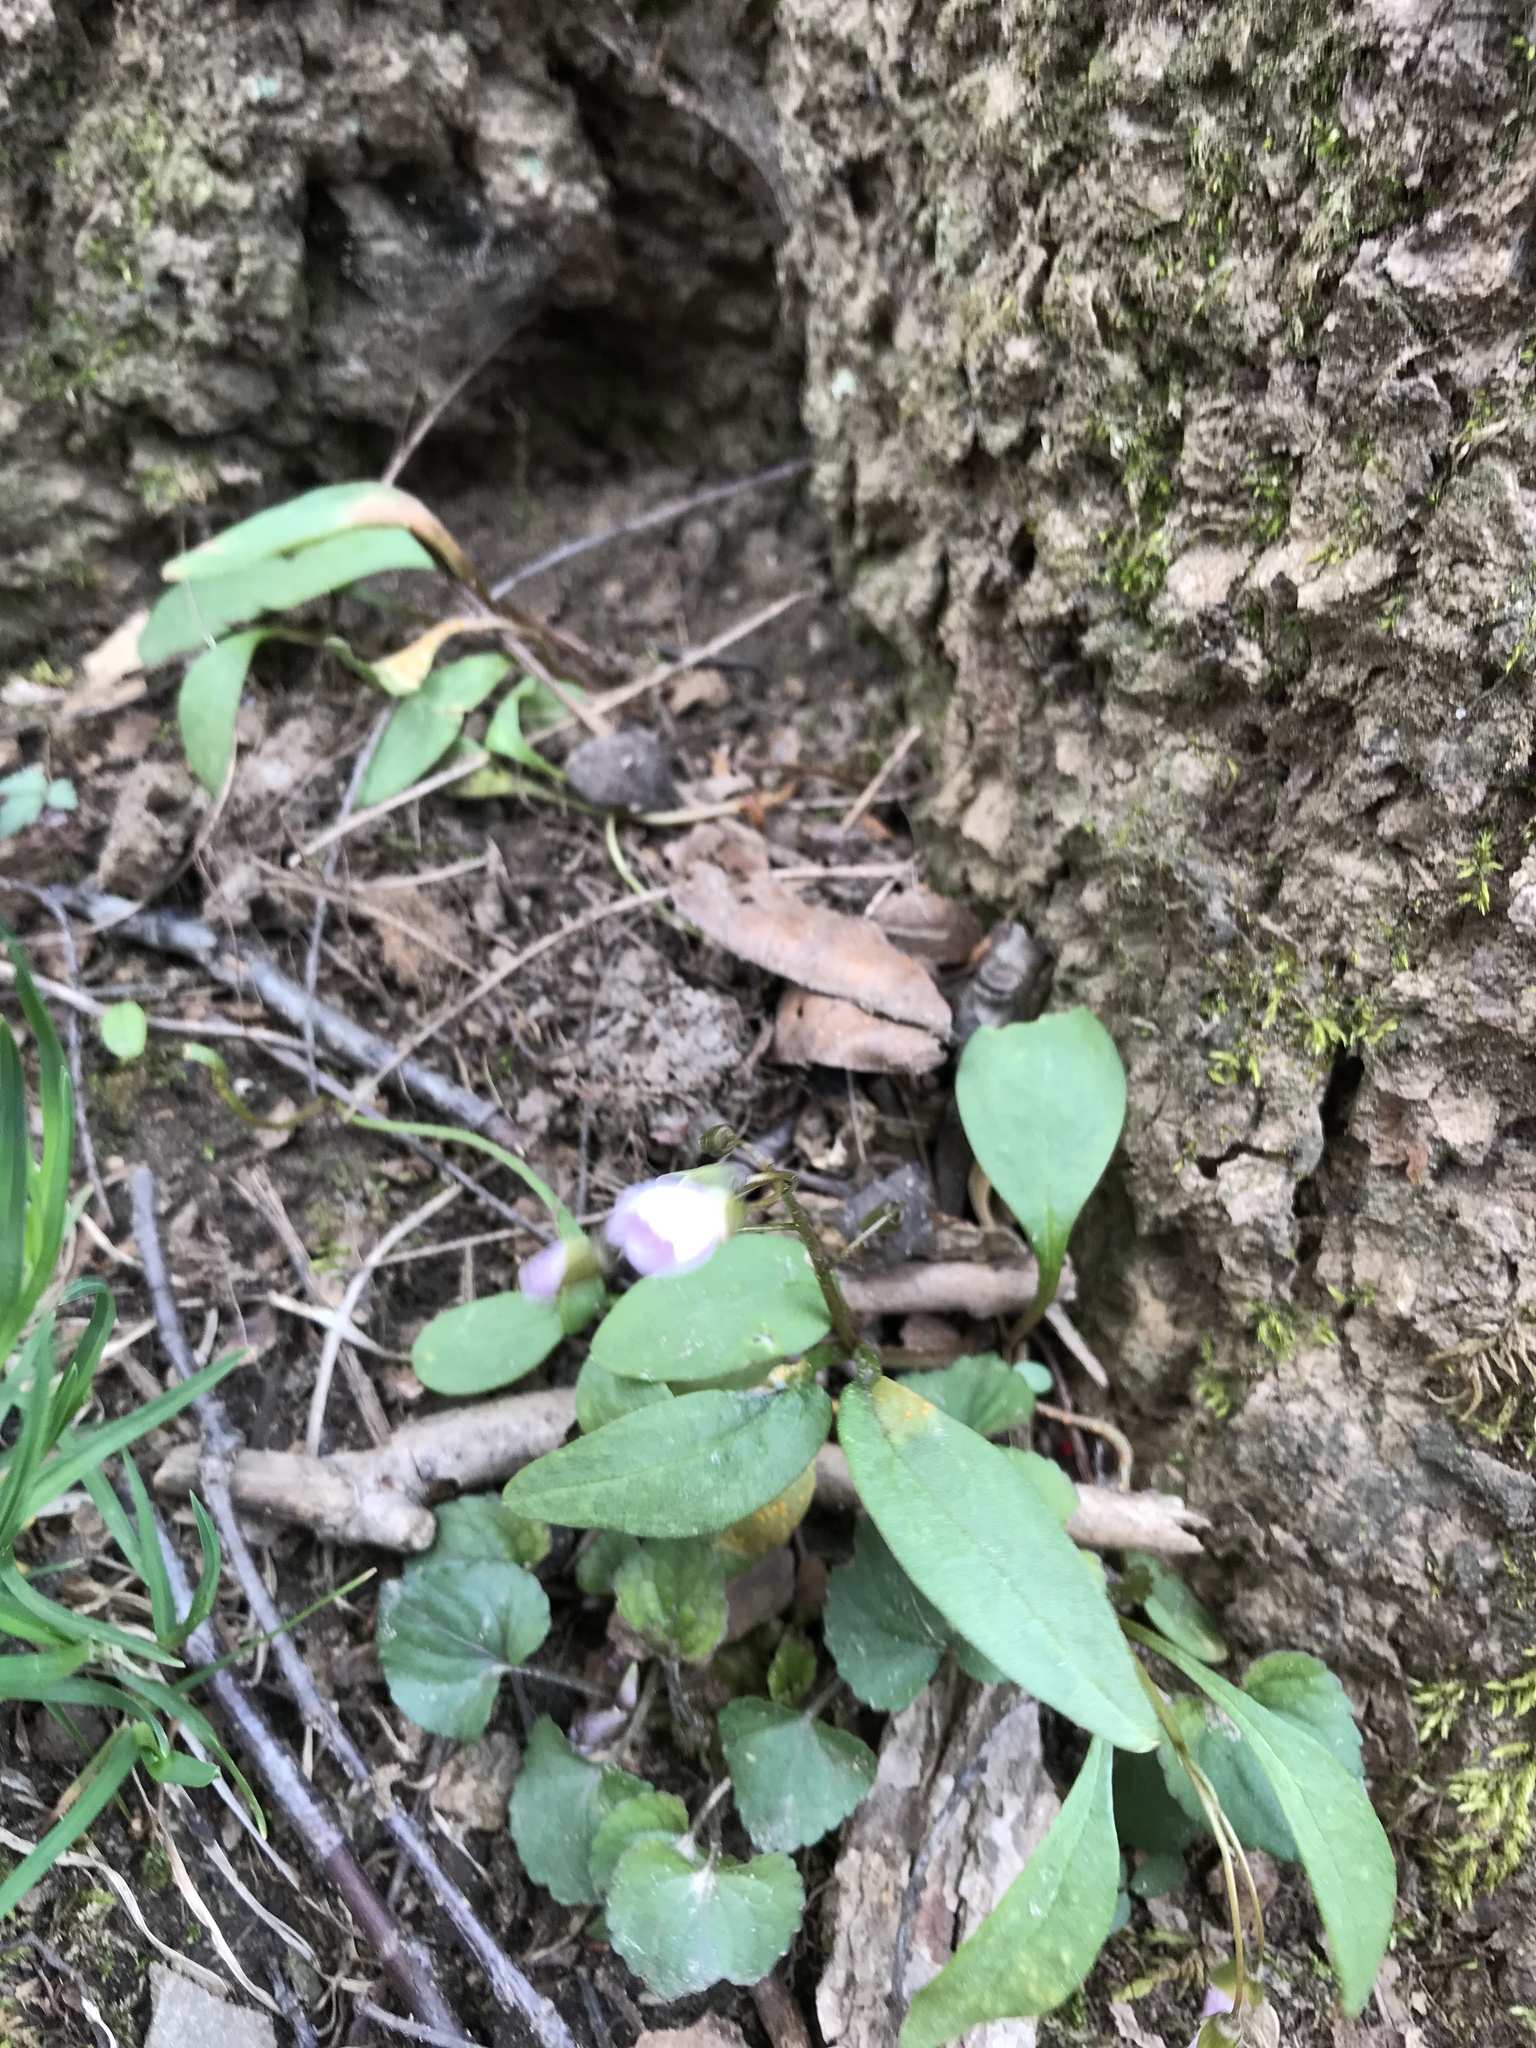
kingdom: Plantae
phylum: Tracheophyta
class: Magnoliopsida
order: Caryophyllales
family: Montiaceae
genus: Claytonia
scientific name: Claytonia caroliniana
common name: Carolina spring beauty
